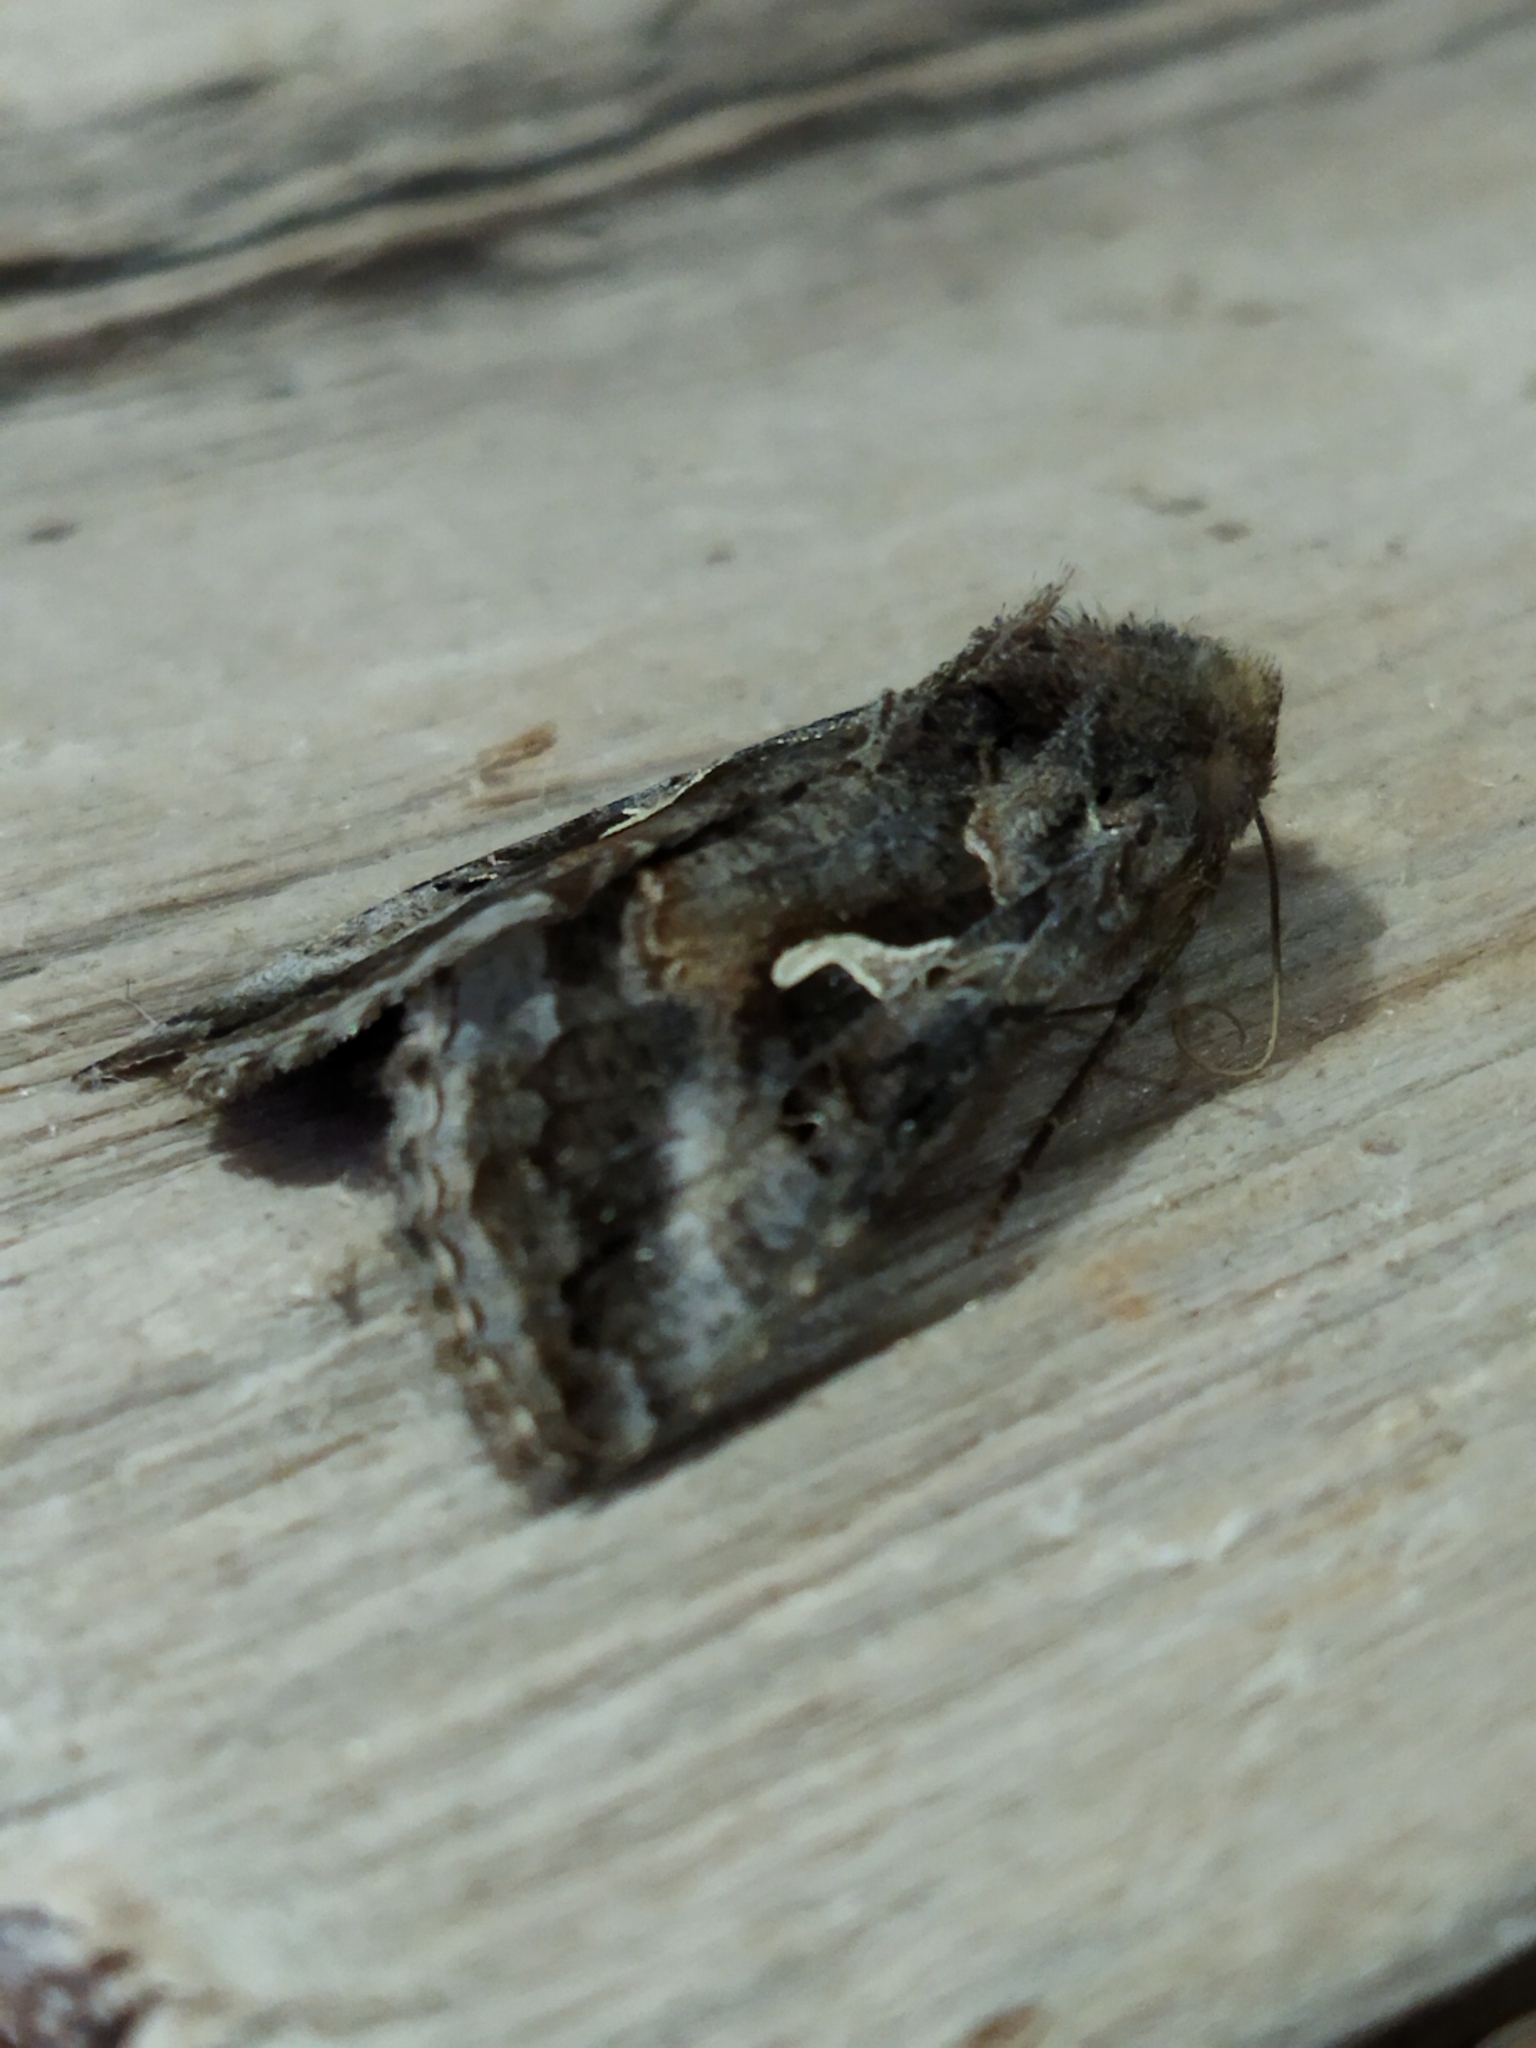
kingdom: Animalia
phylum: Arthropoda
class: Insecta
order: Lepidoptera
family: Noctuidae
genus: Autographa
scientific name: Autographa gamma
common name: Silver y
